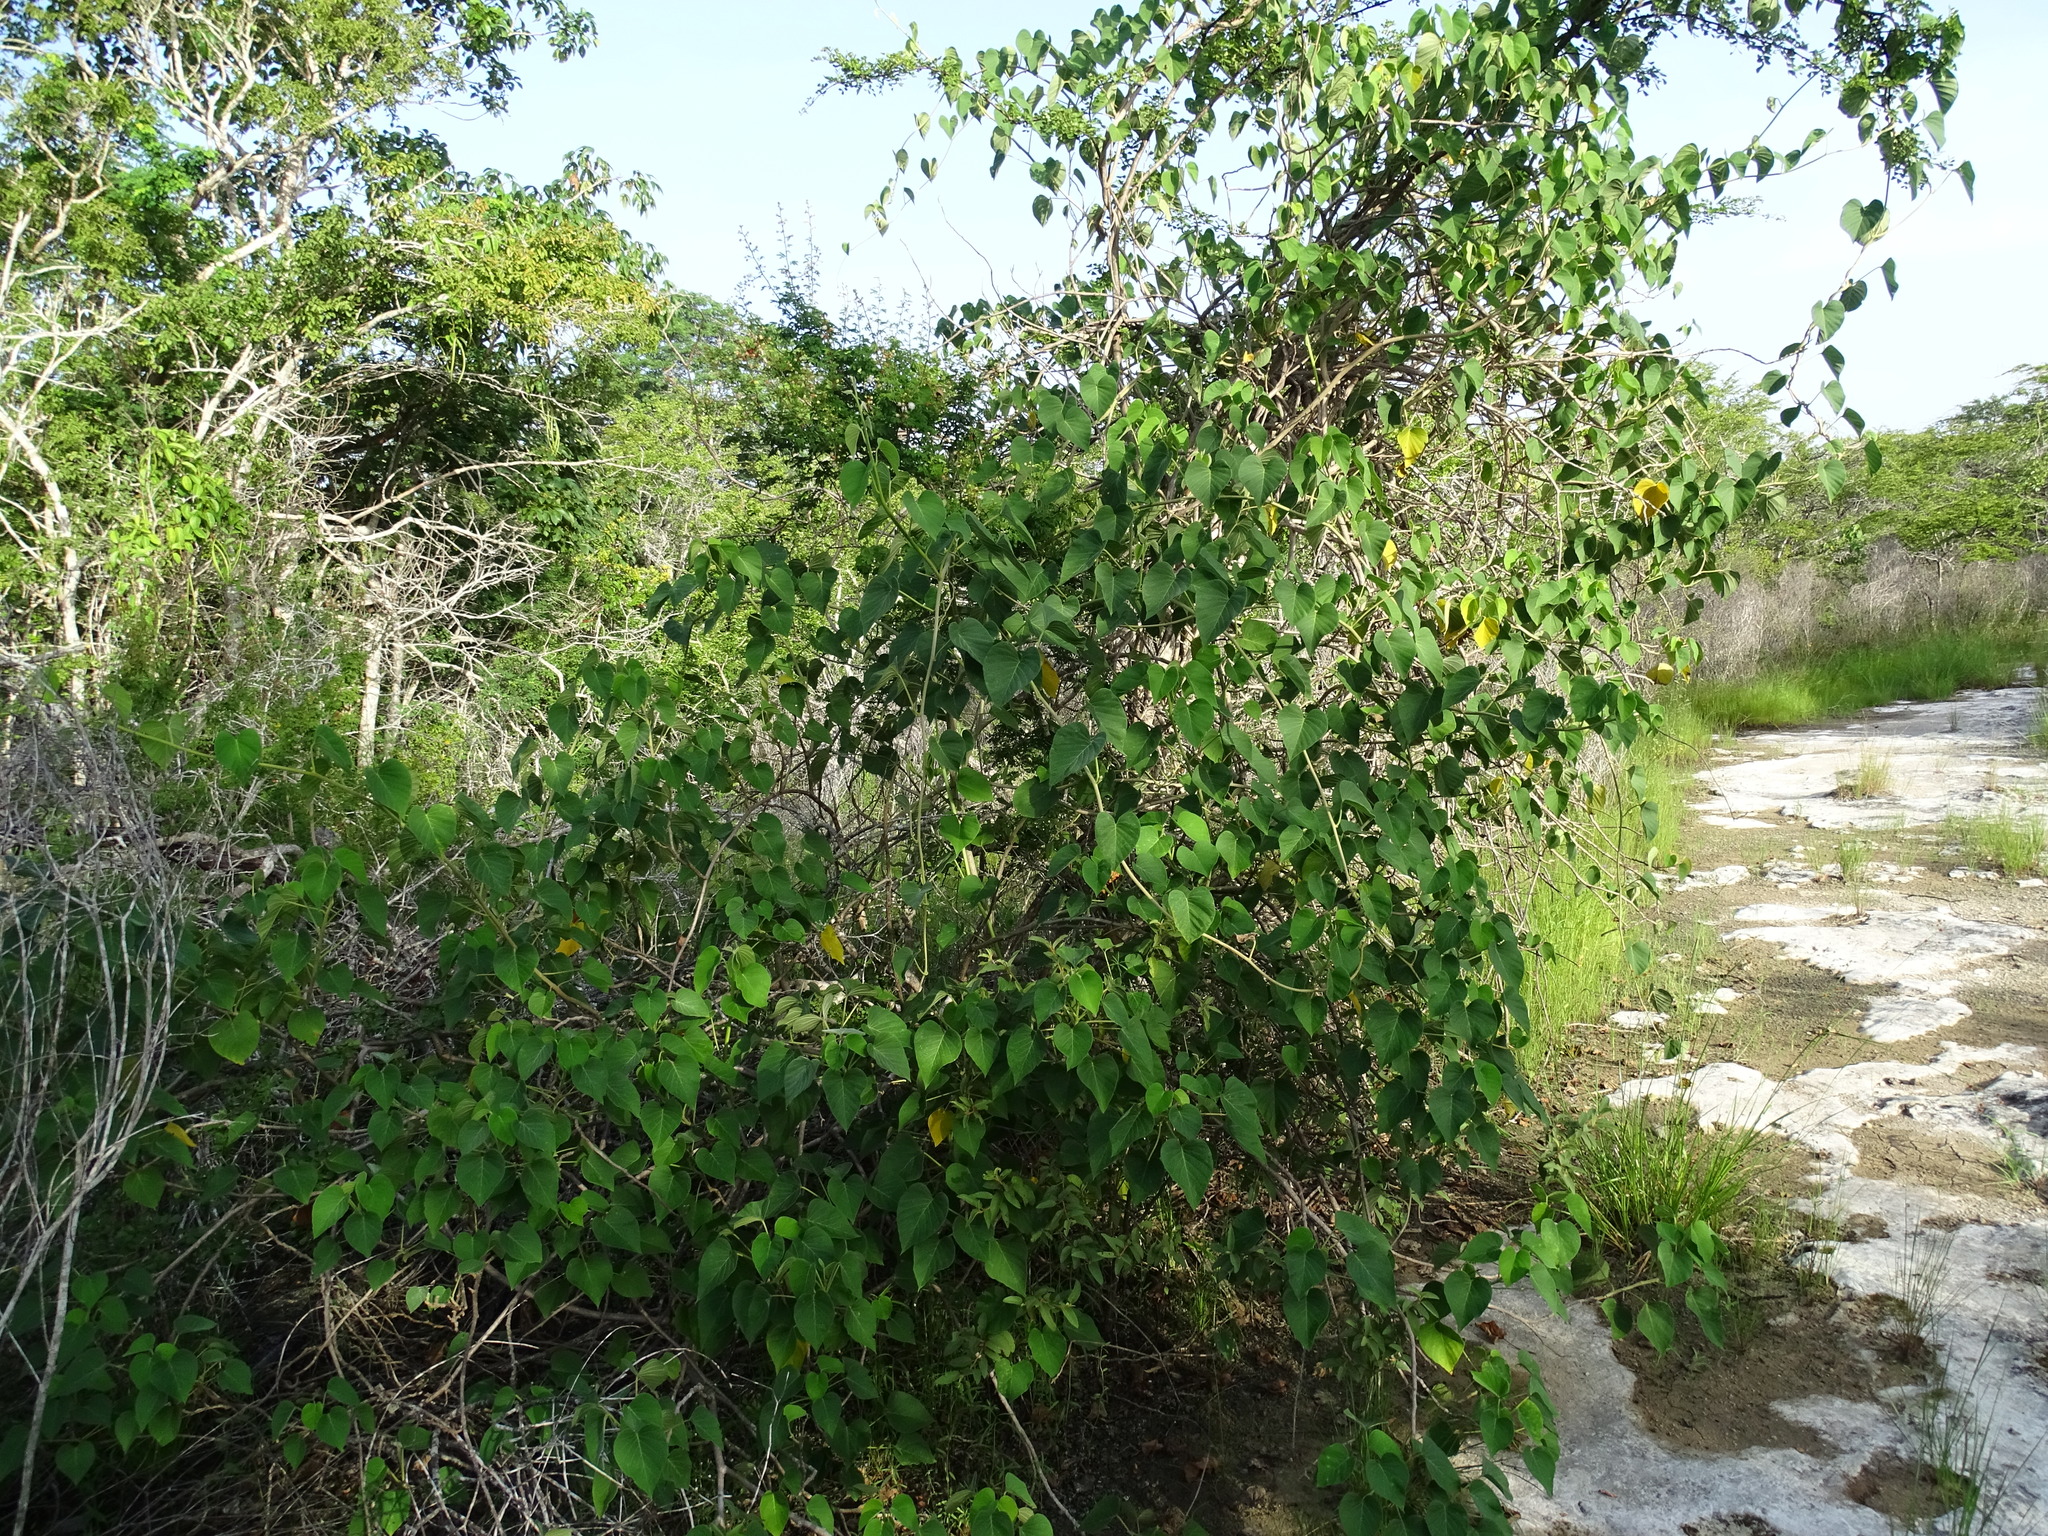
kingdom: Plantae
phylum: Tracheophyta
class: Magnoliopsida
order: Solanales
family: Convolvulaceae
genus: Ipomoea
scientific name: Ipomoea carnea
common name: Morning-glory
